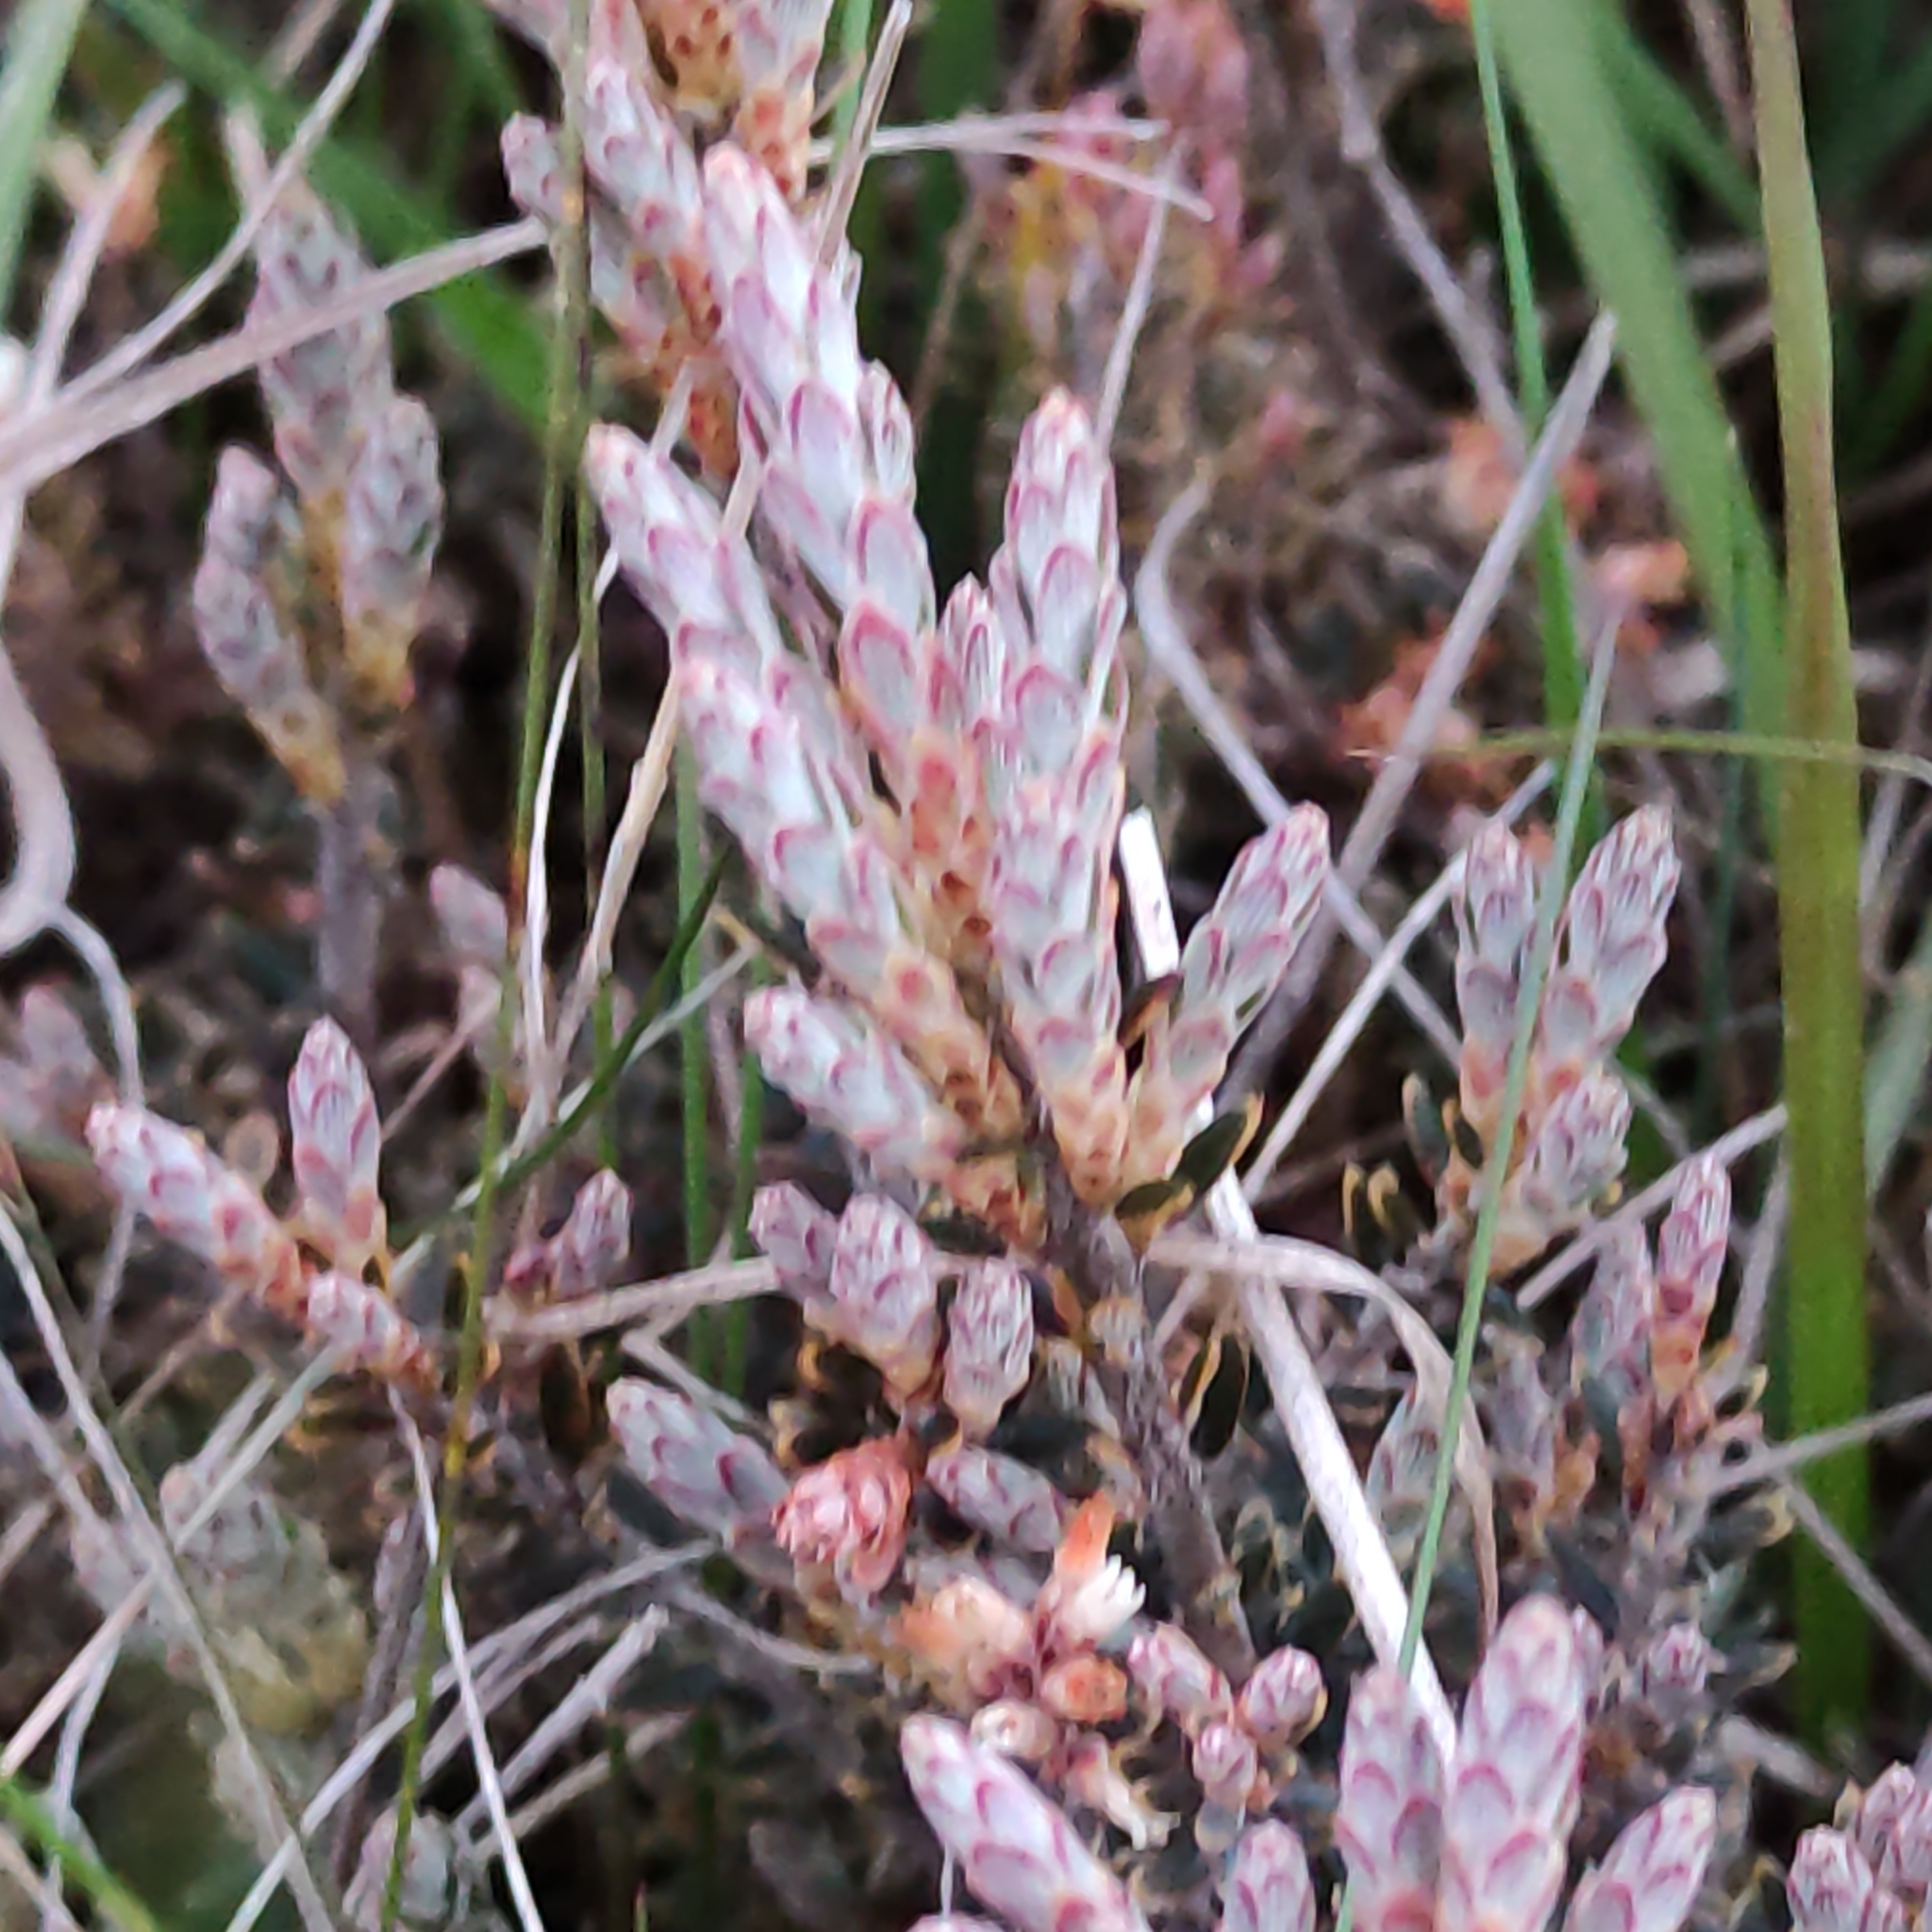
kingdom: Plantae
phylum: Tracheophyta
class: Magnoliopsida
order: Ericales
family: Ericaceae
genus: Acrothamnus
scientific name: Acrothamnus colensoi
